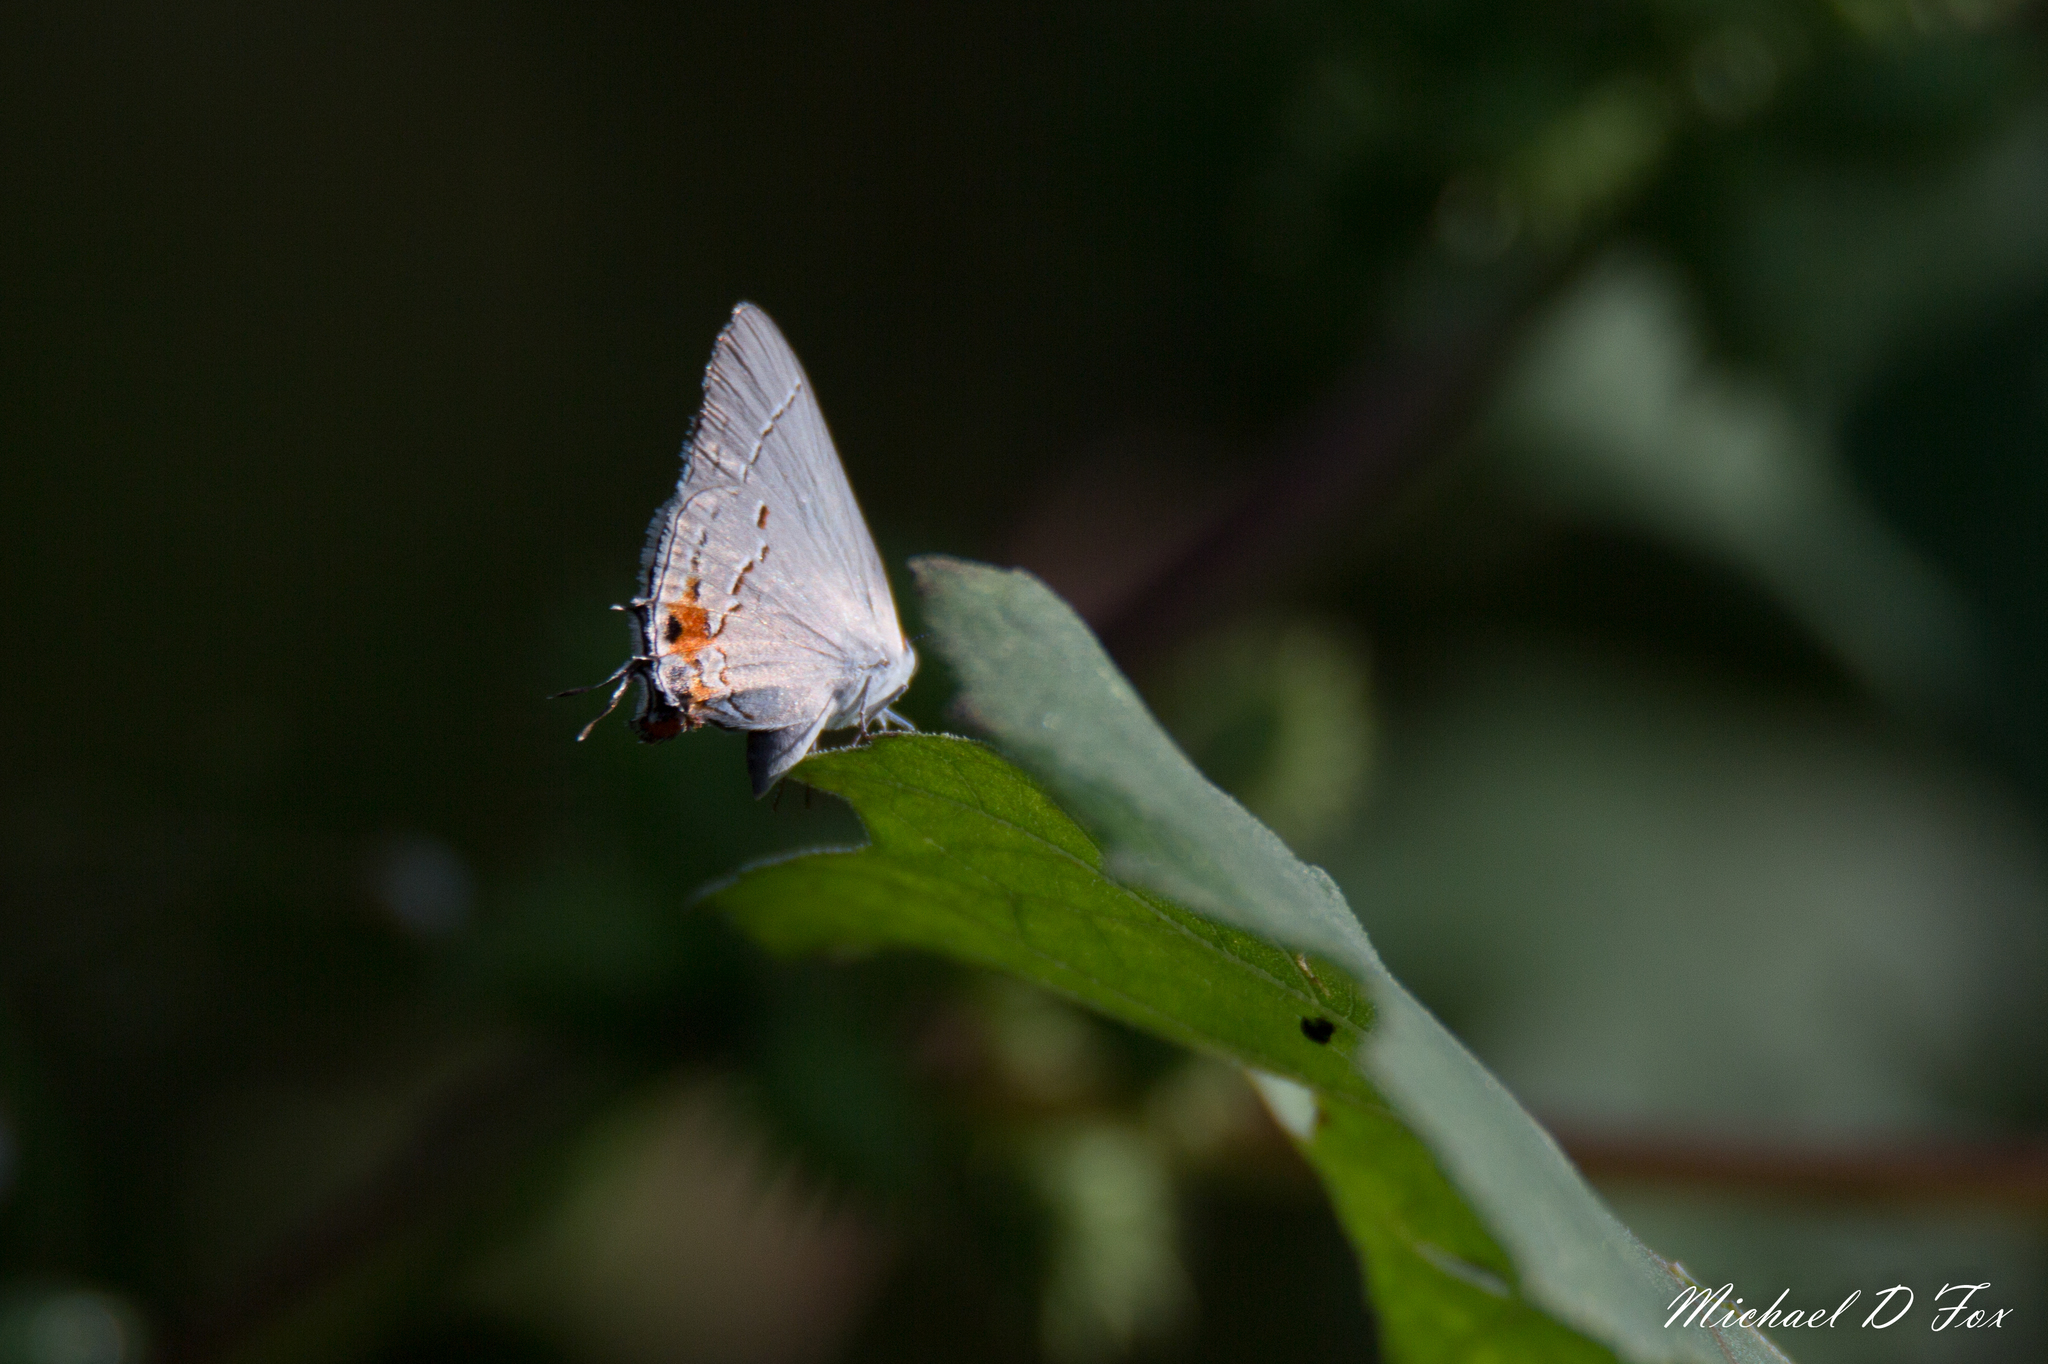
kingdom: Animalia
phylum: Arthropoda
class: Insecta
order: Lepidoptera
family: Lycaenidae
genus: Strymon
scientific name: Strymon melinus
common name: Gray hairstreak
